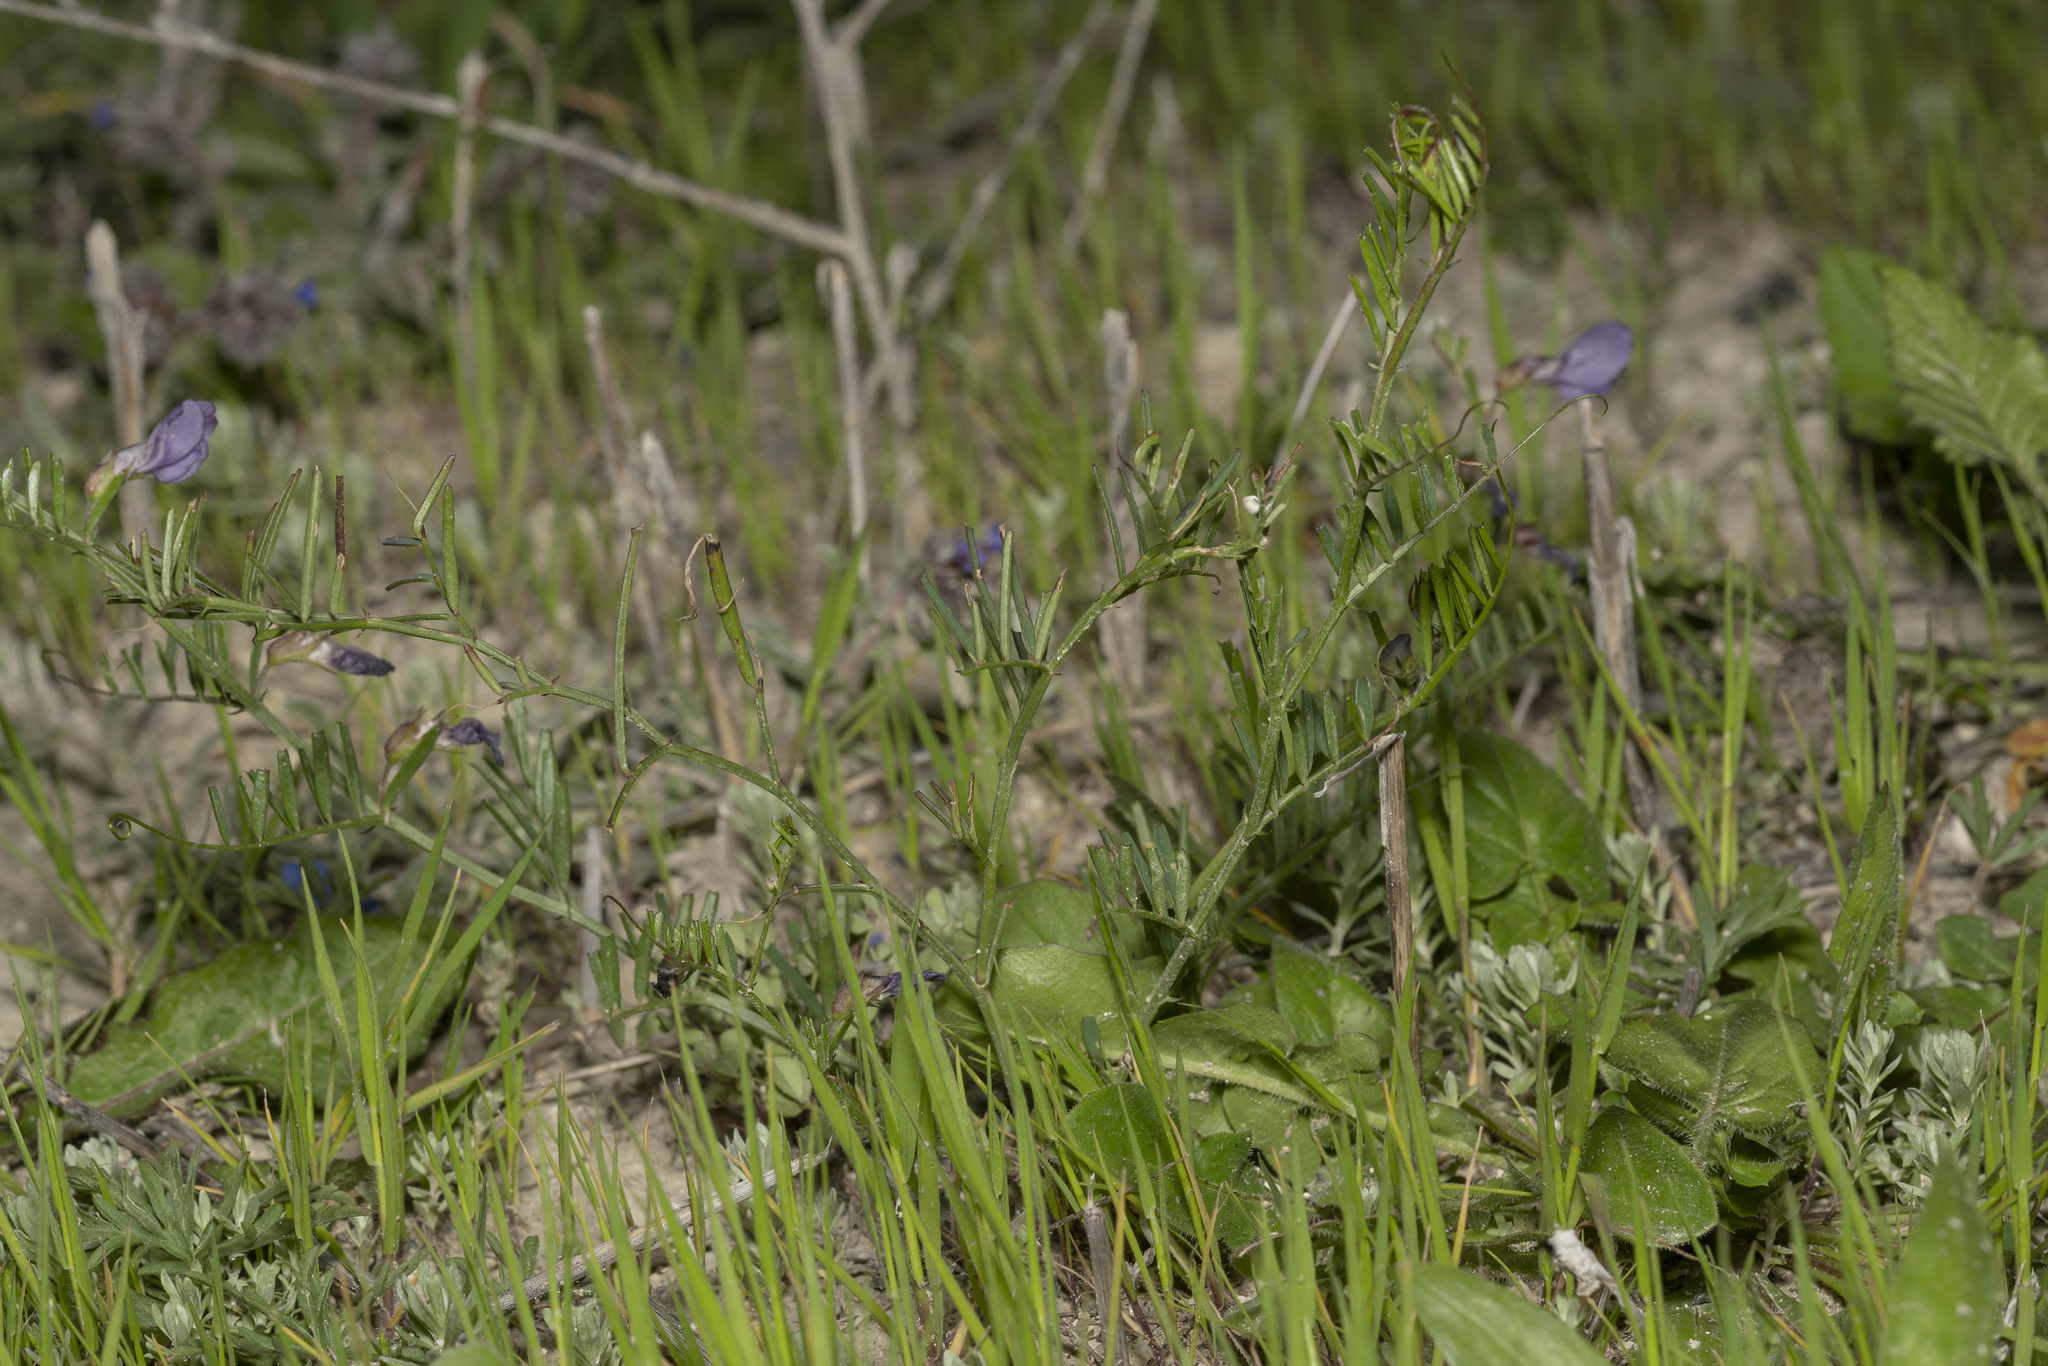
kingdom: Plantae
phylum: Tracheophyta
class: Magnoliopsida
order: Fabales
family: Fabaceae
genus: Vicia
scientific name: Vicia peregrina
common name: Broad-pod vetch
